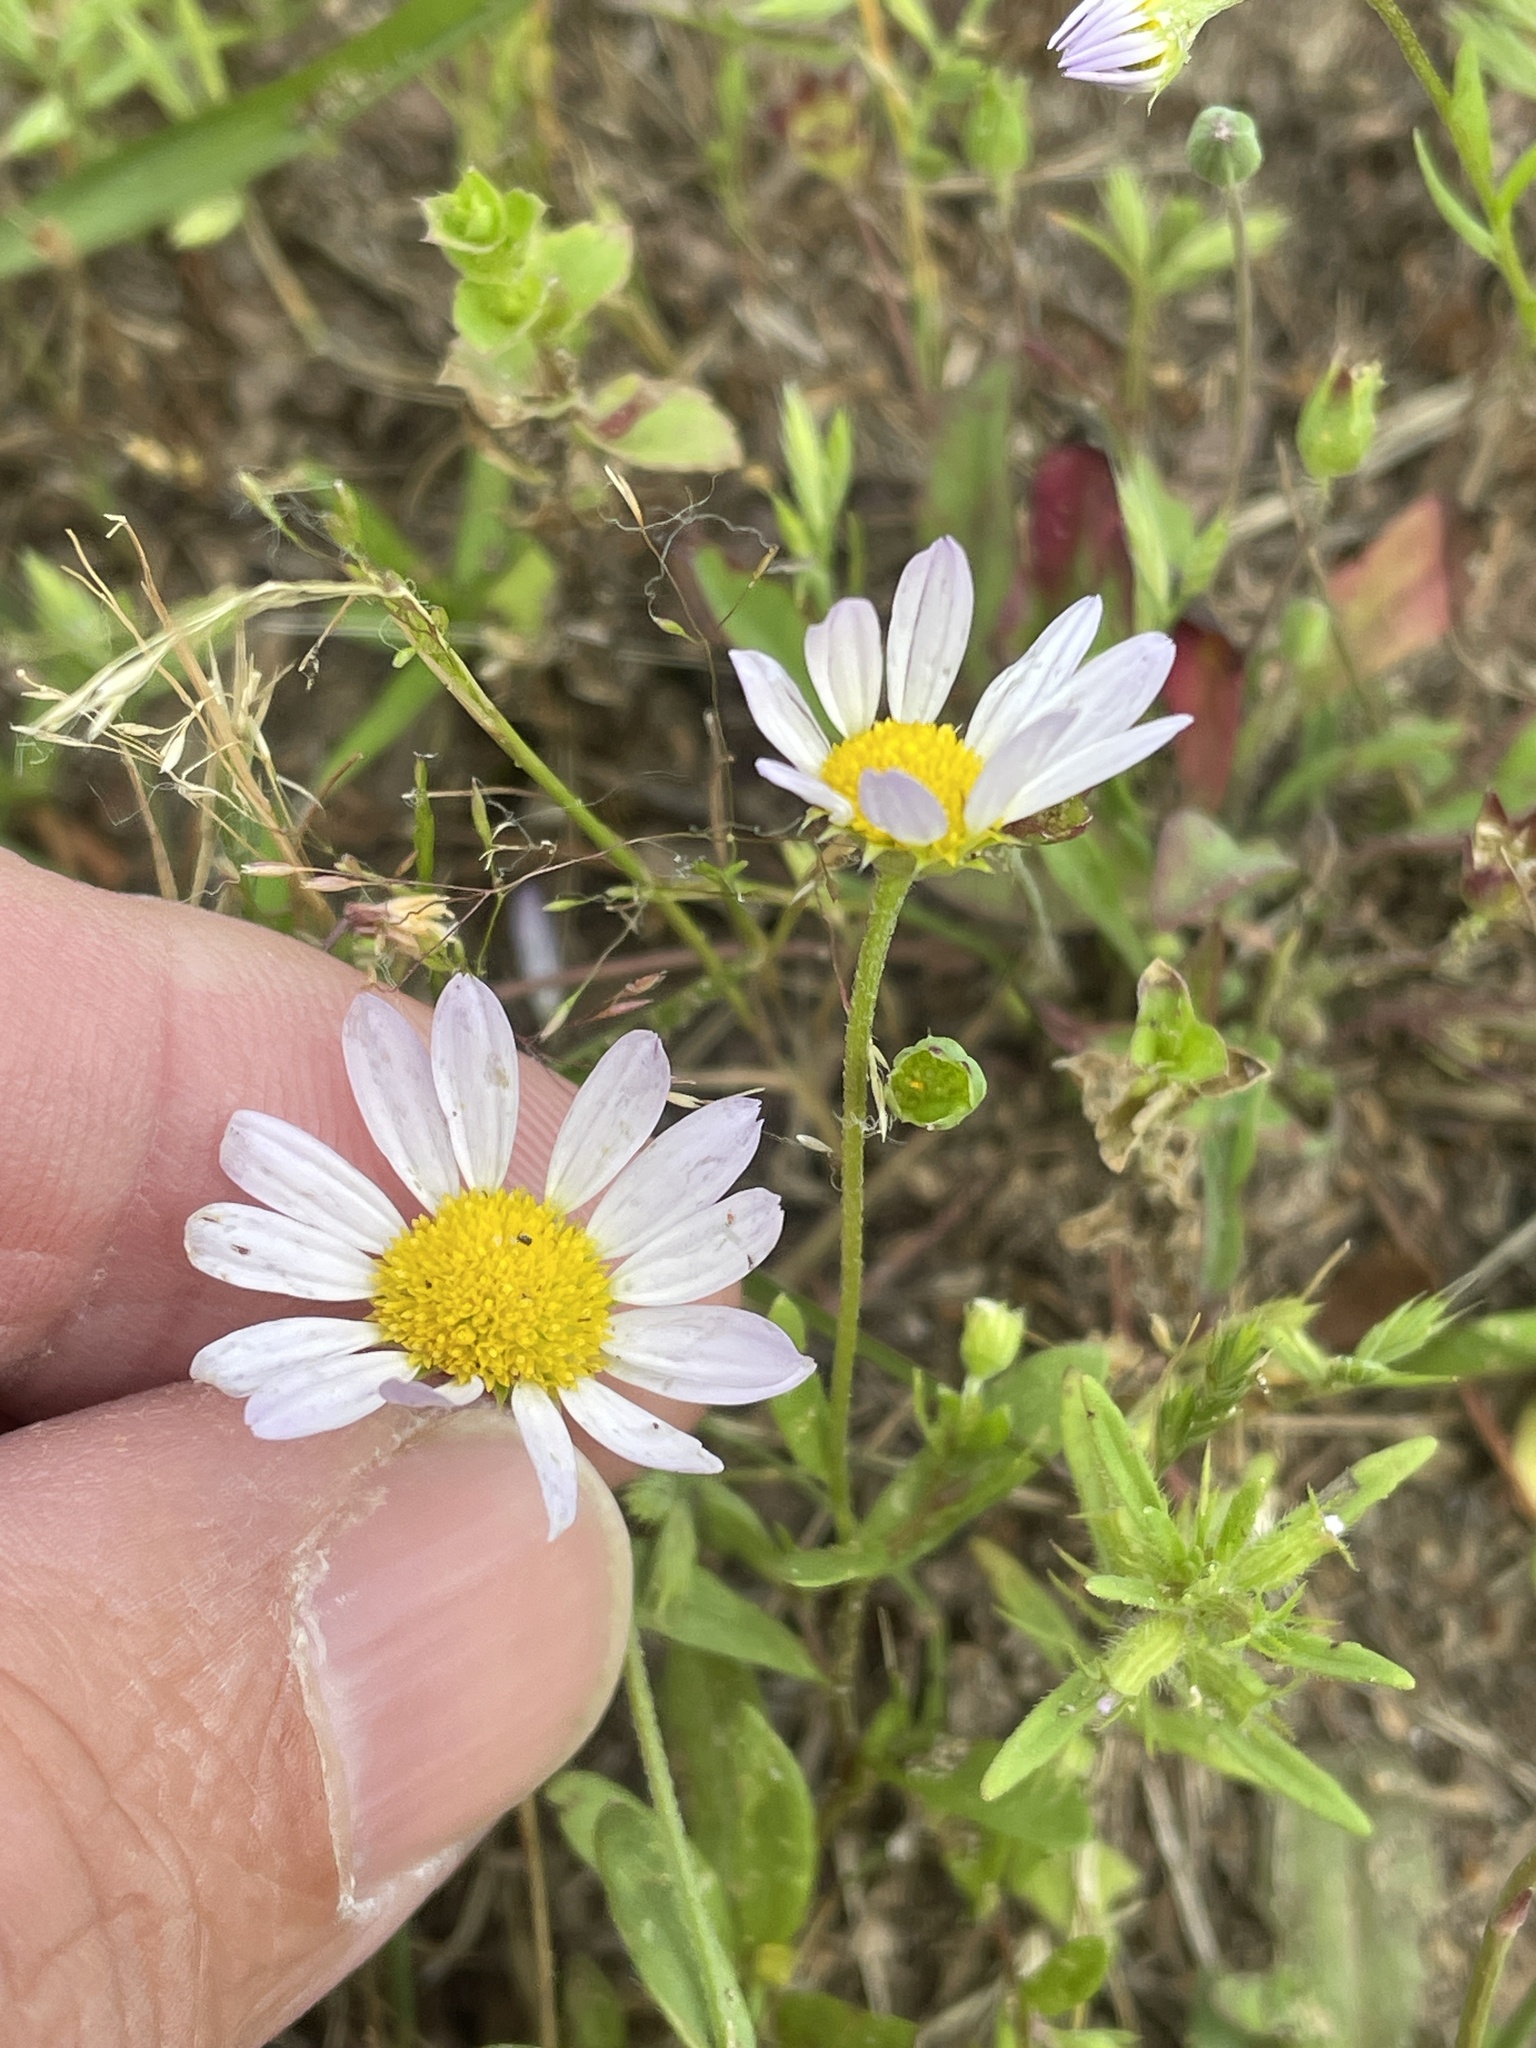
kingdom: Plantae
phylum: Tracheophyta
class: Magnoliopsida
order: Asterales
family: Asteraceae
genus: Astranthium
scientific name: Astranthium ciliatum
